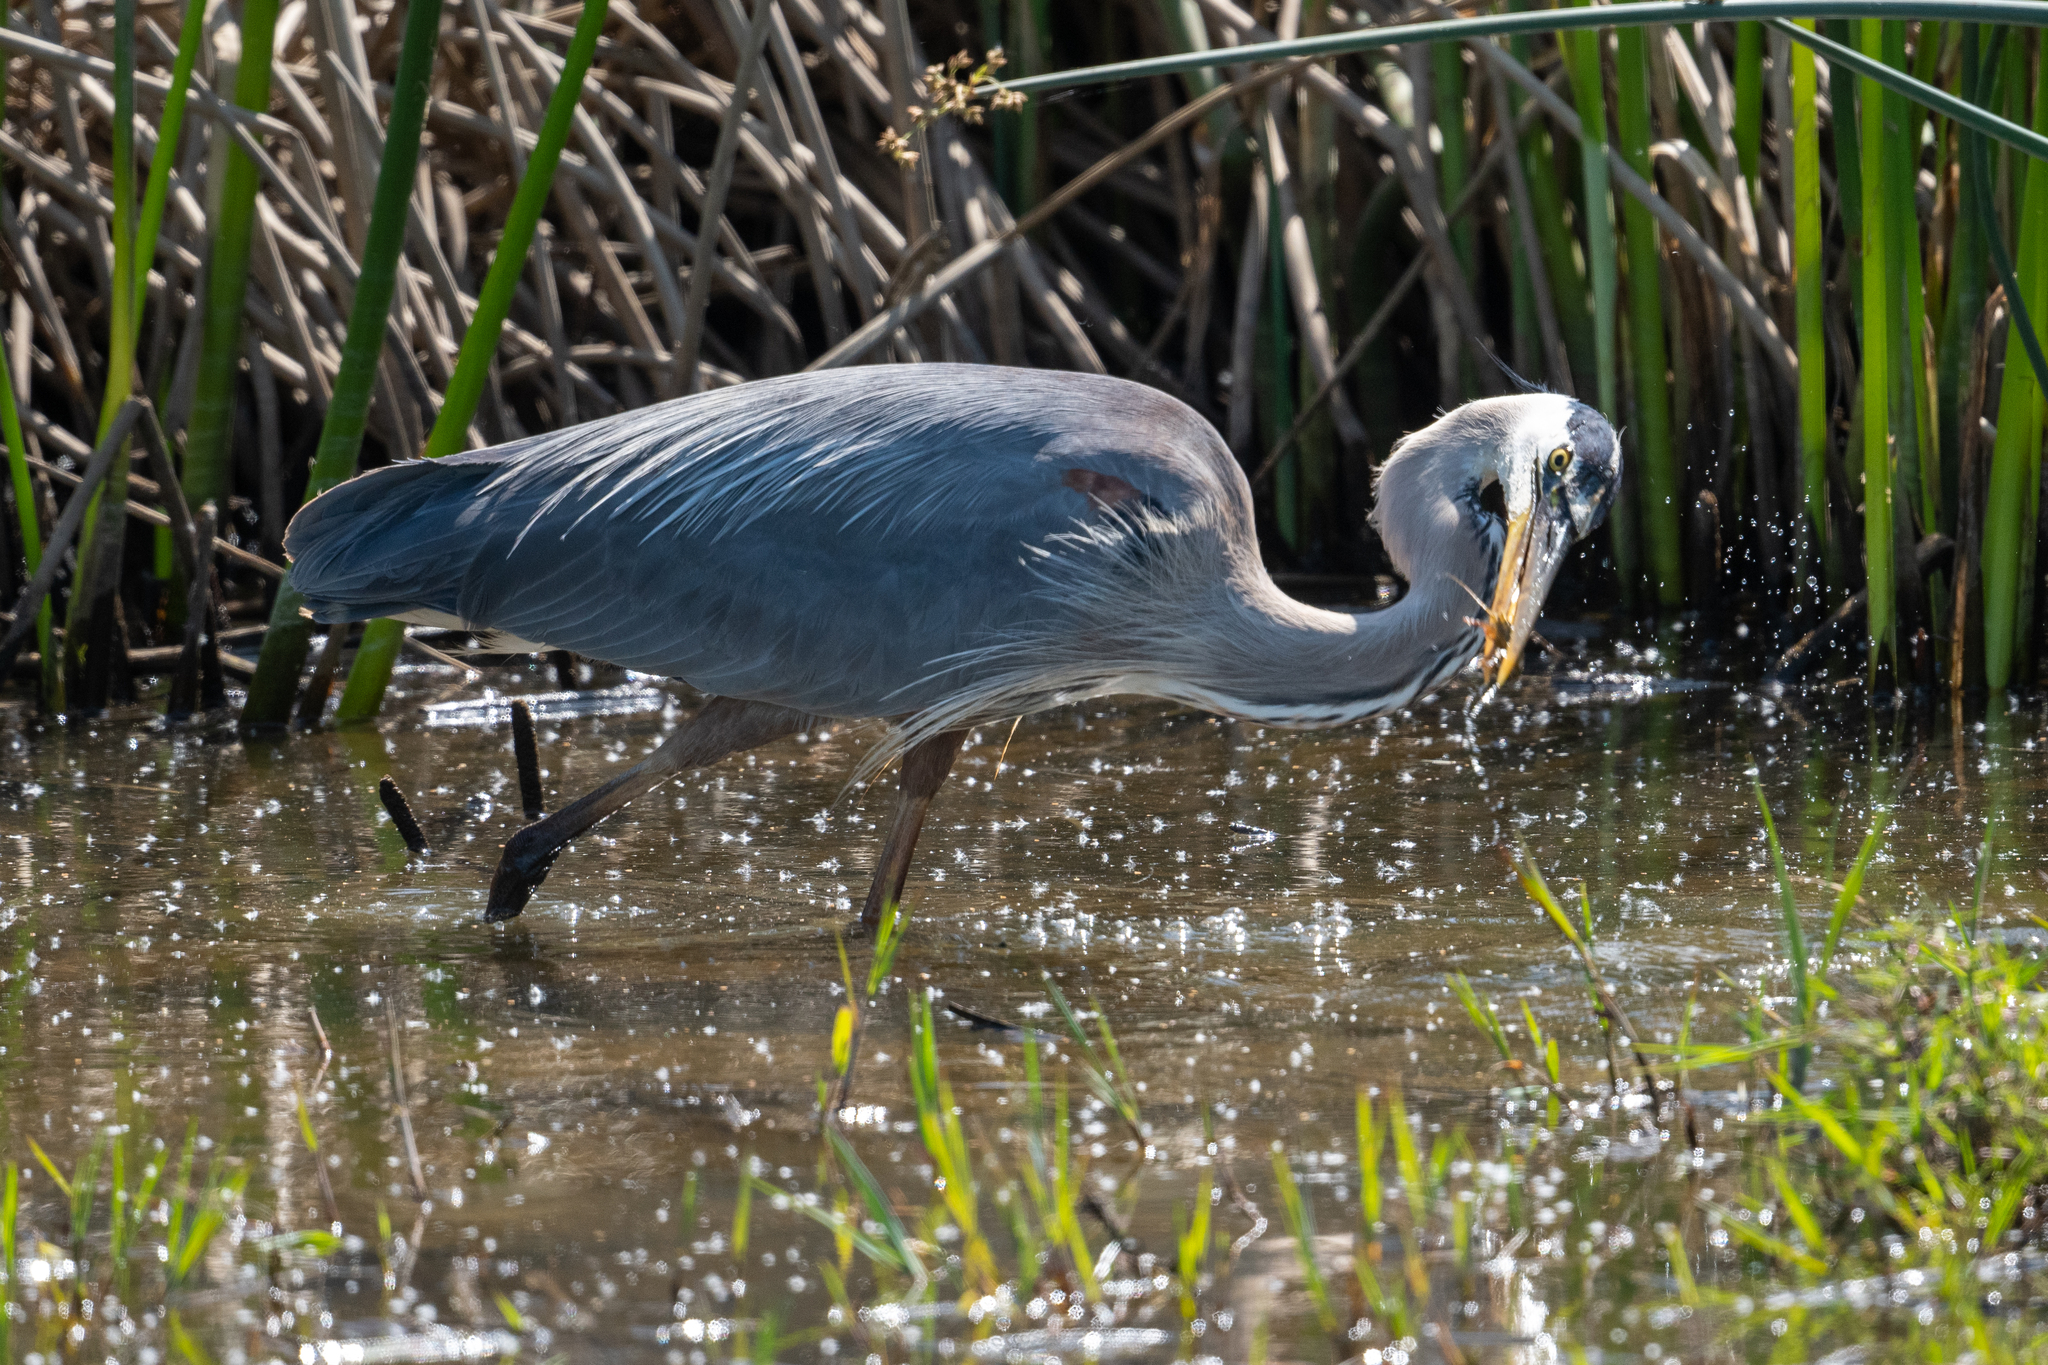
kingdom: Animalia
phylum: Chordata
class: Aves
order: Pelecaniformes
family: Ardeidae
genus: Ardea
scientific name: Ardea herodias
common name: Great blue heron
